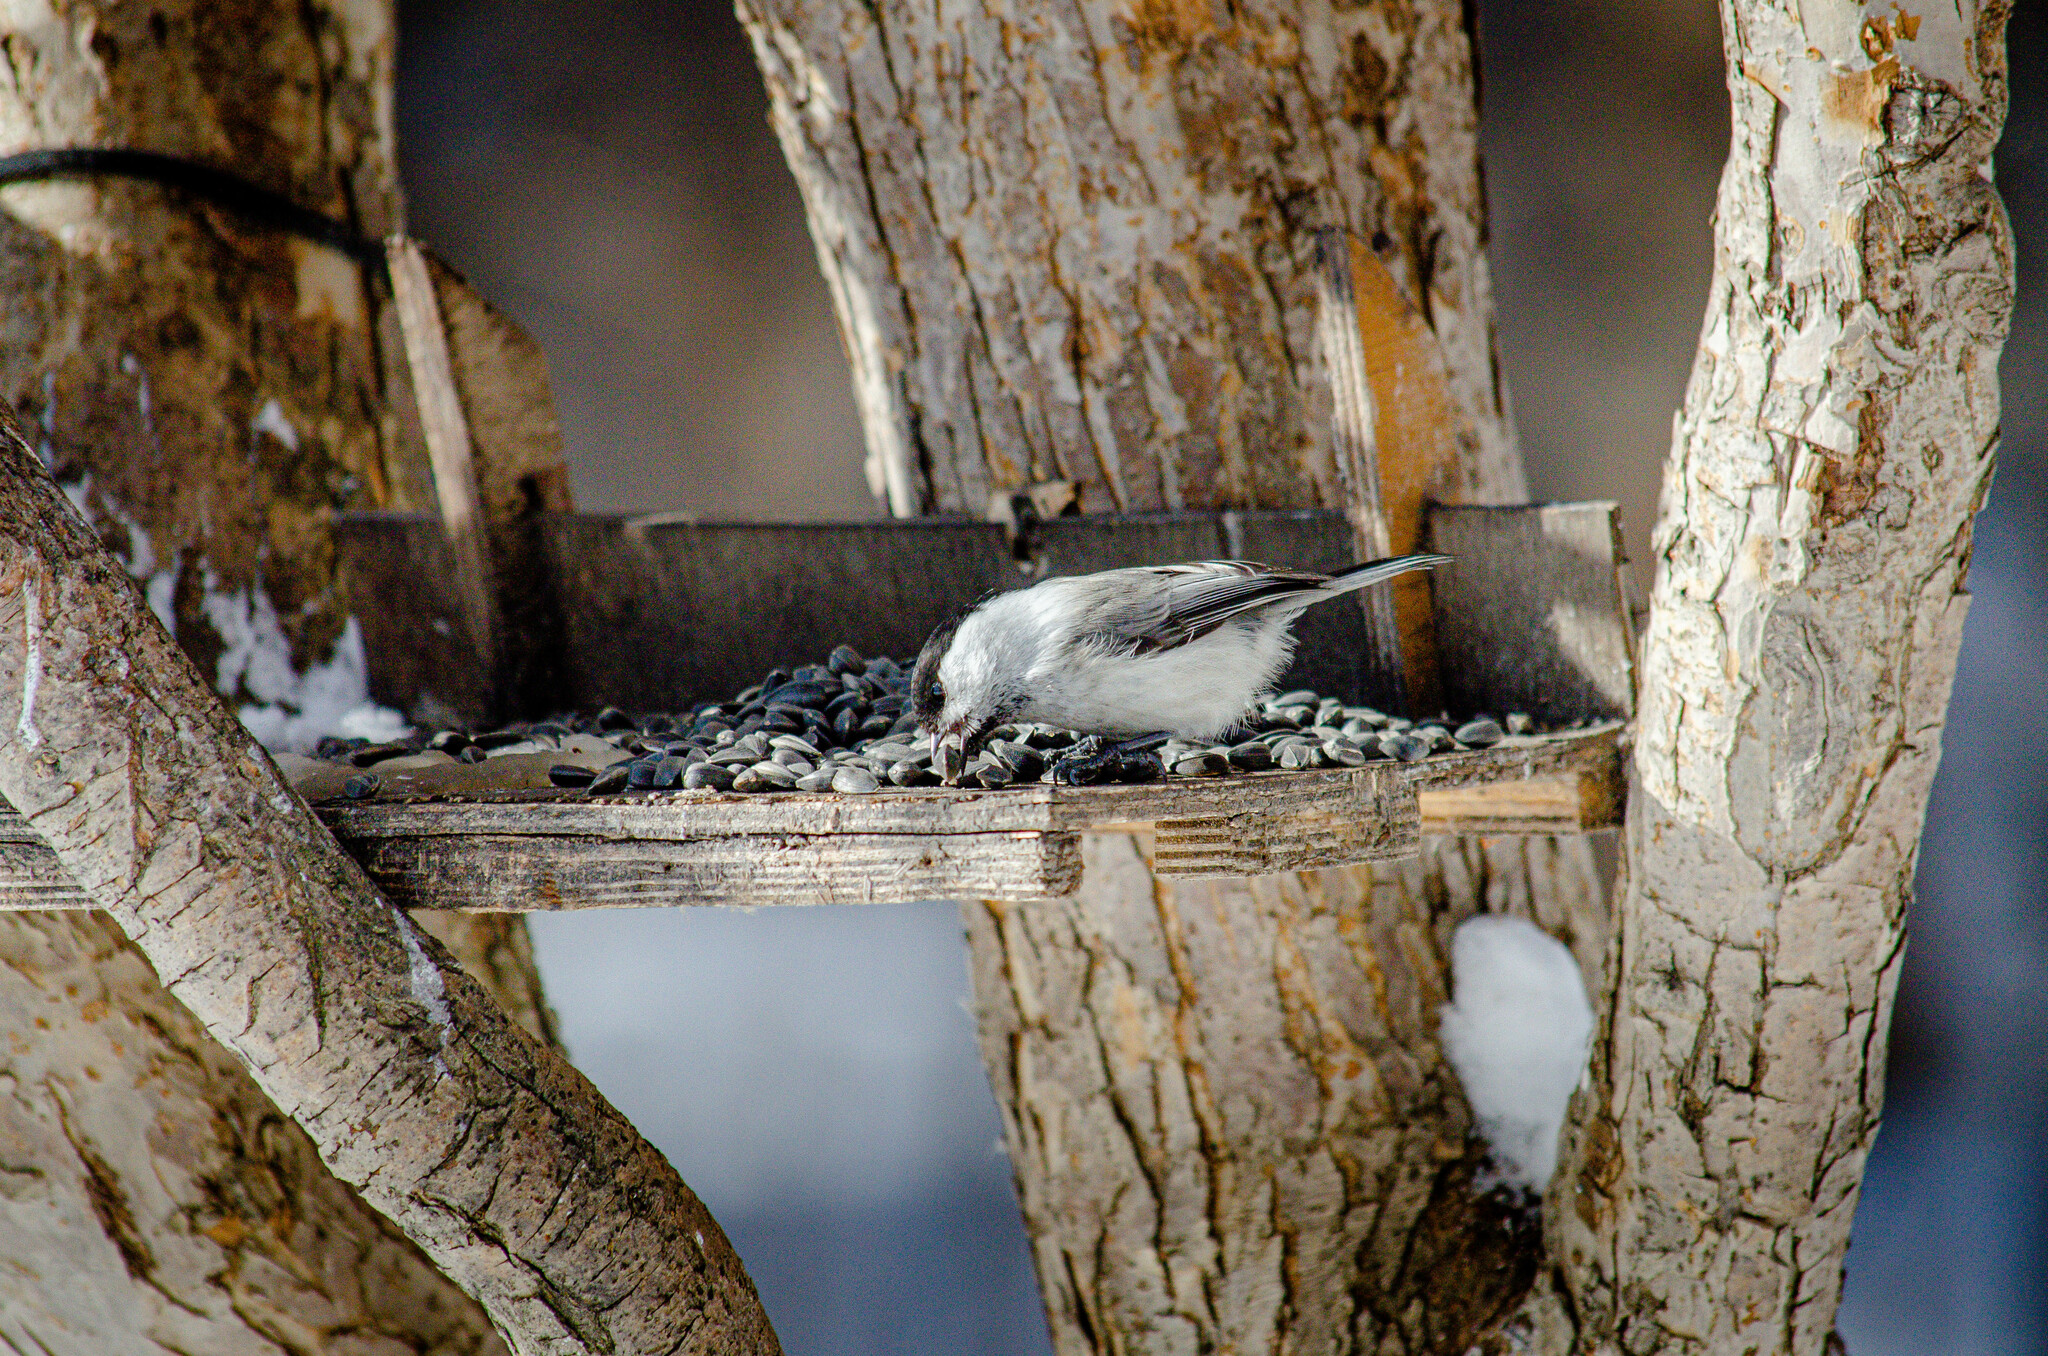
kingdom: Animalia
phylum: Chordata
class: Aves
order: Passeriformes
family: Paridae
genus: Poecile
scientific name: Poecile palustris
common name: Marsh tit
